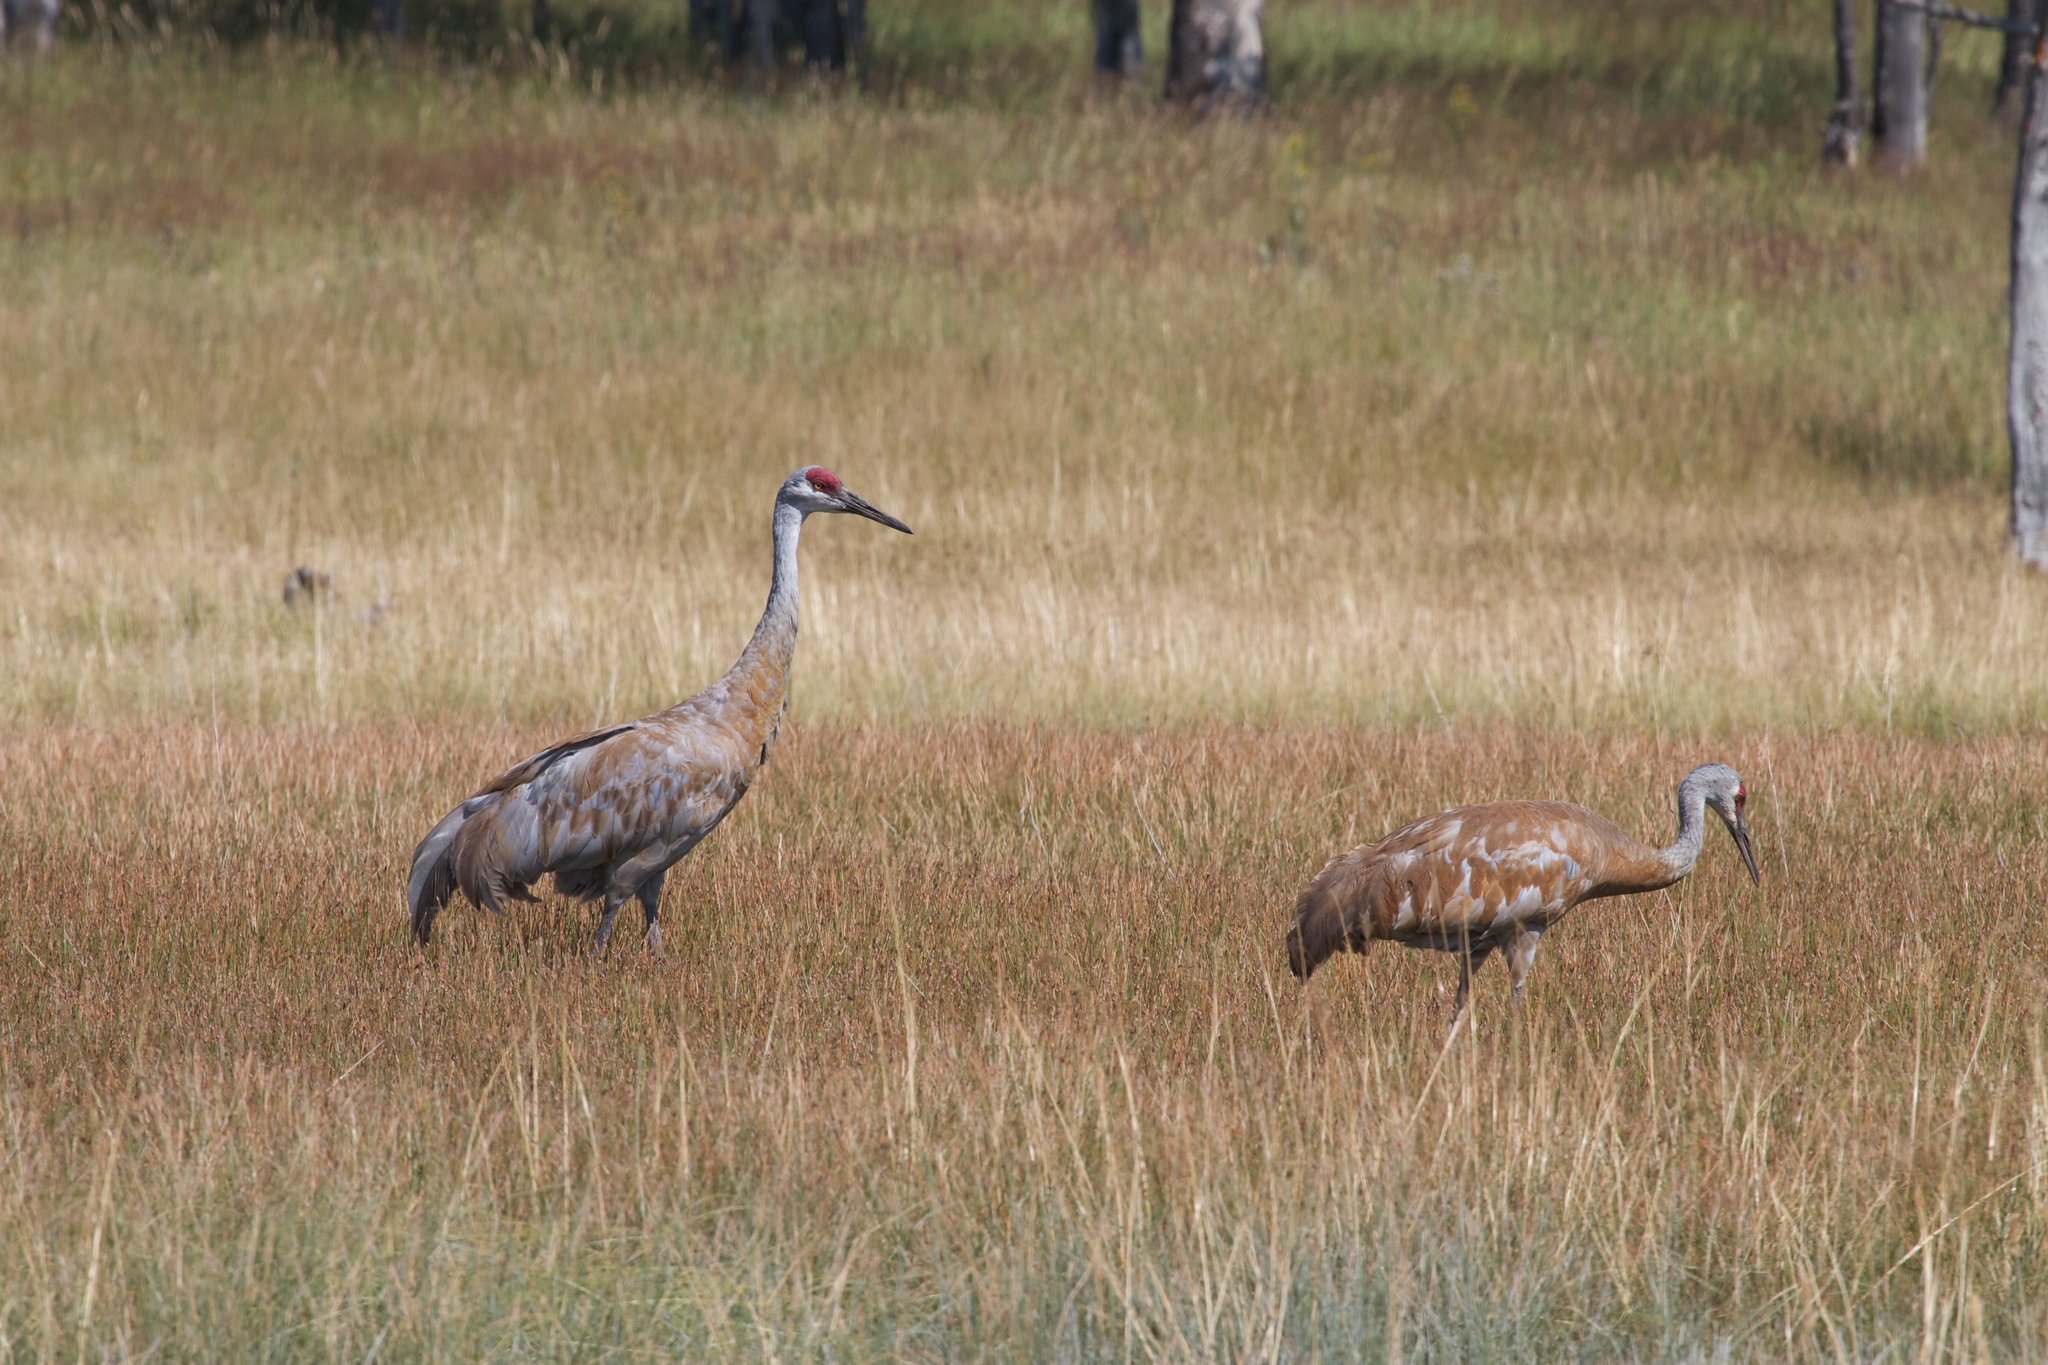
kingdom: Animalia
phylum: Chordata
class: Aves
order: Gruiformes
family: Gruidae
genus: Grus
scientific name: Grus canadensis
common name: Sandhill crane
